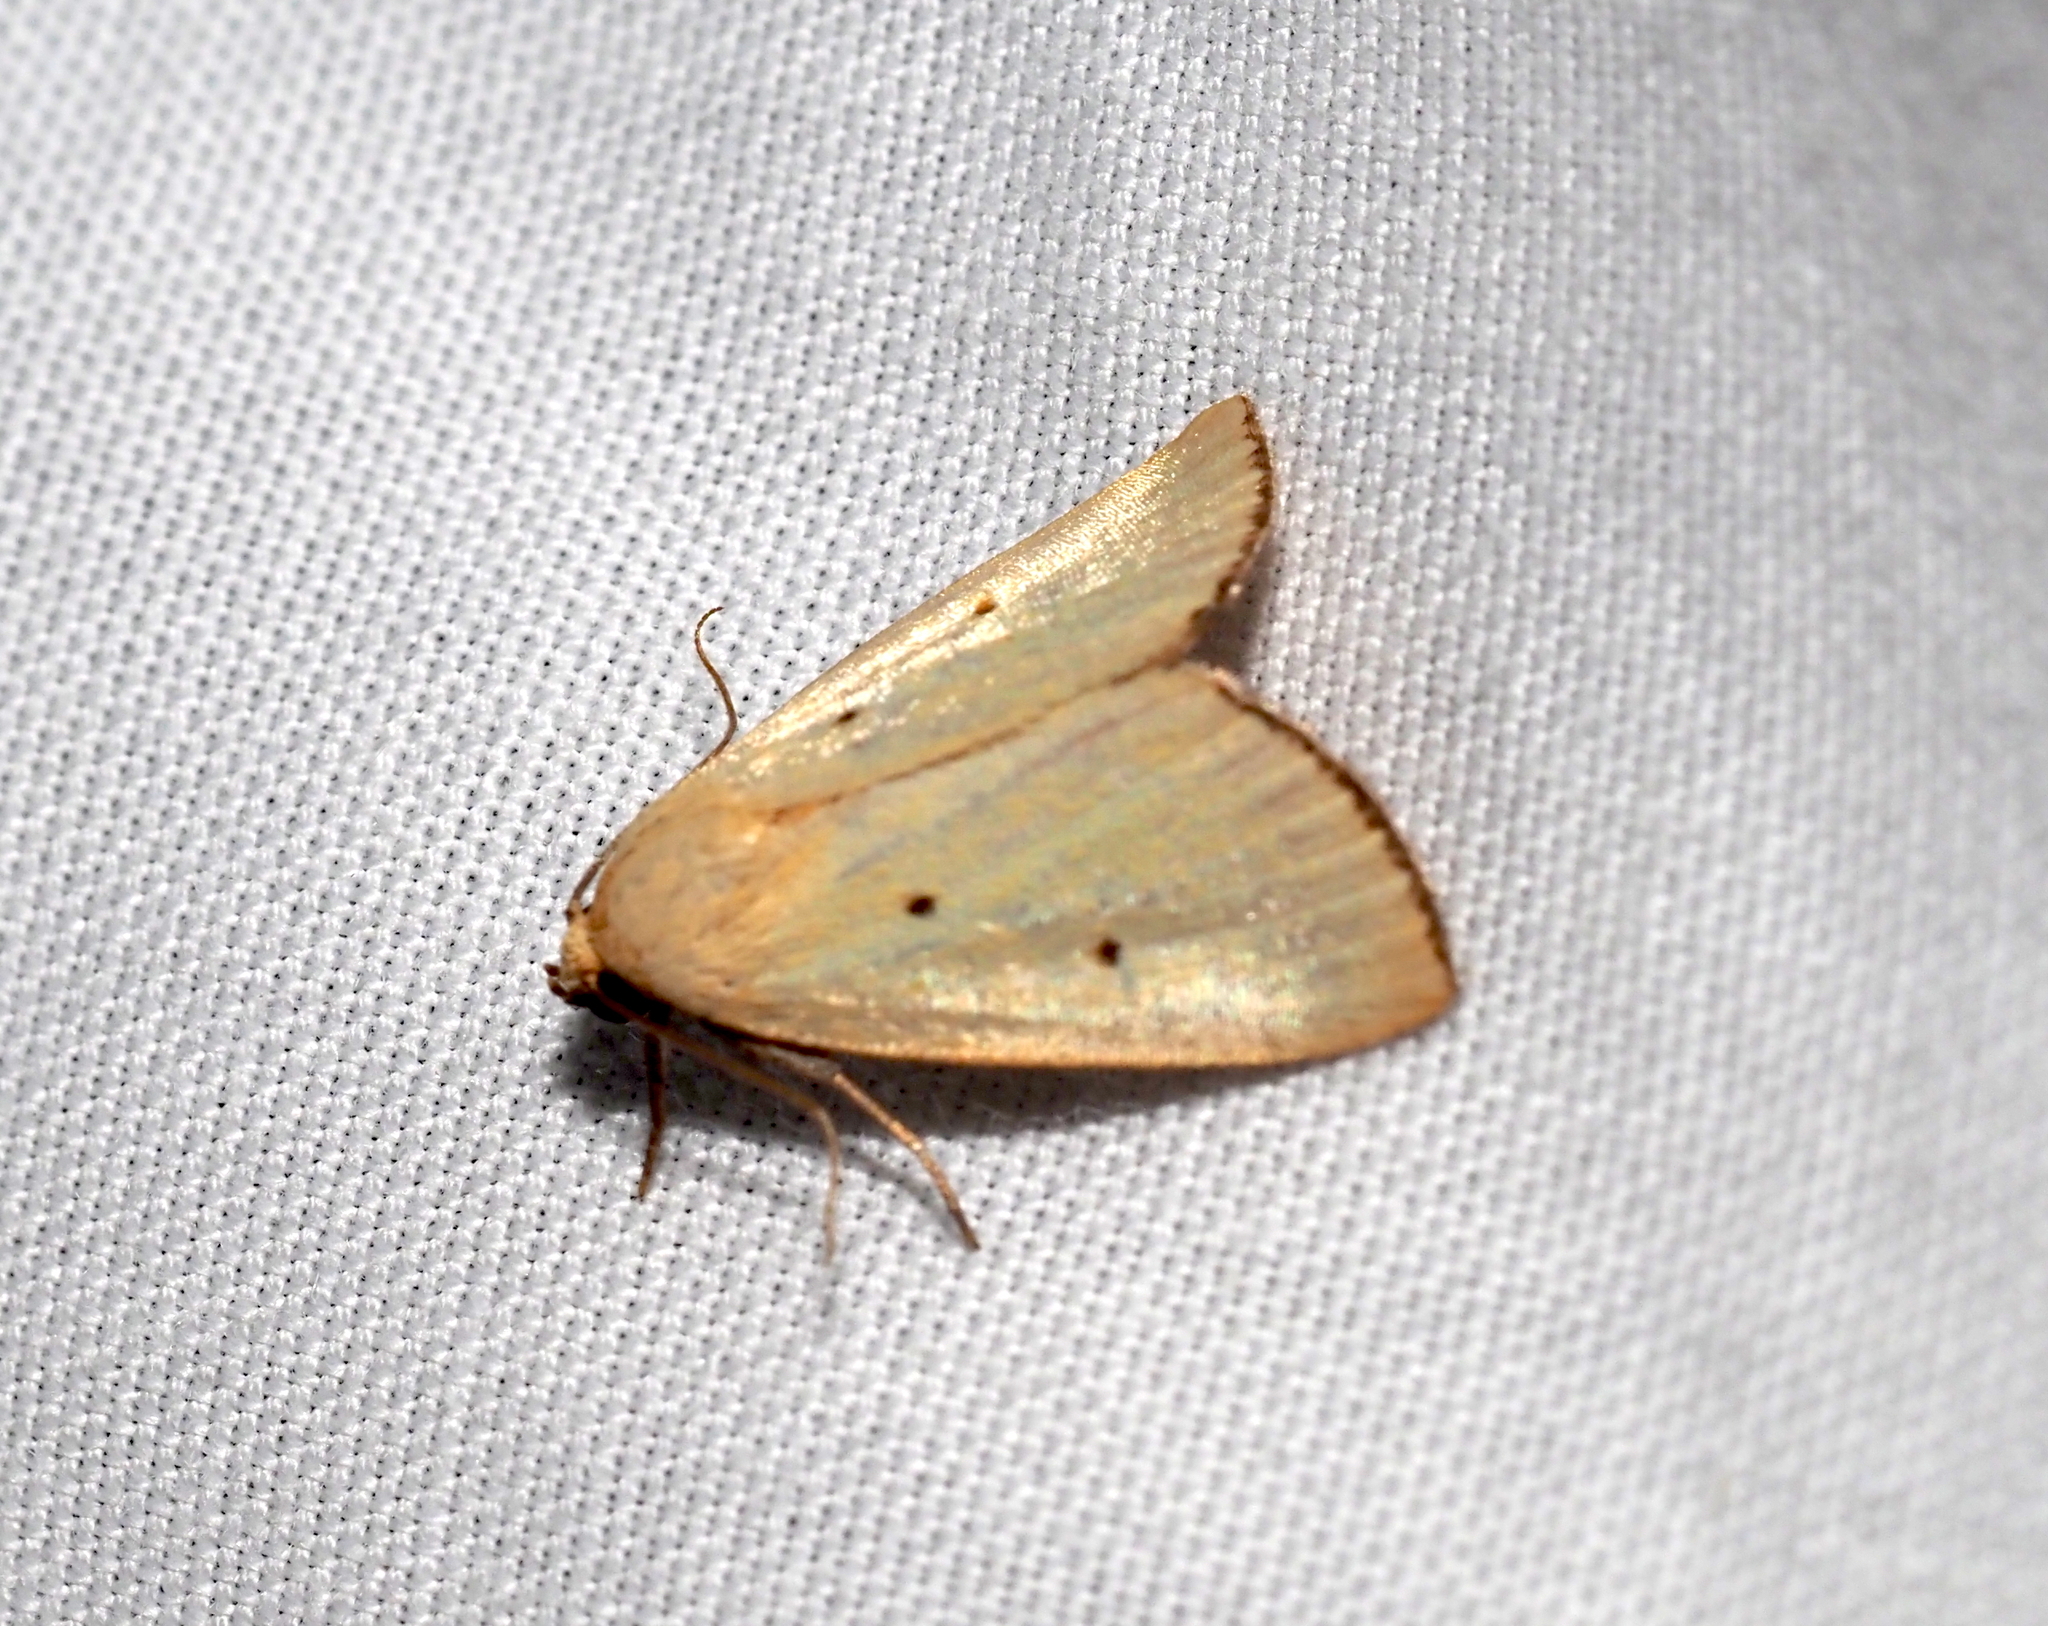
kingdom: Animalia
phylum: Arthropoda
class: Insecta
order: Lepidoptera
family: Noctuidae
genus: Marimatha
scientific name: Marimatha nigrofimbria
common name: Black-bordered lemon moth
